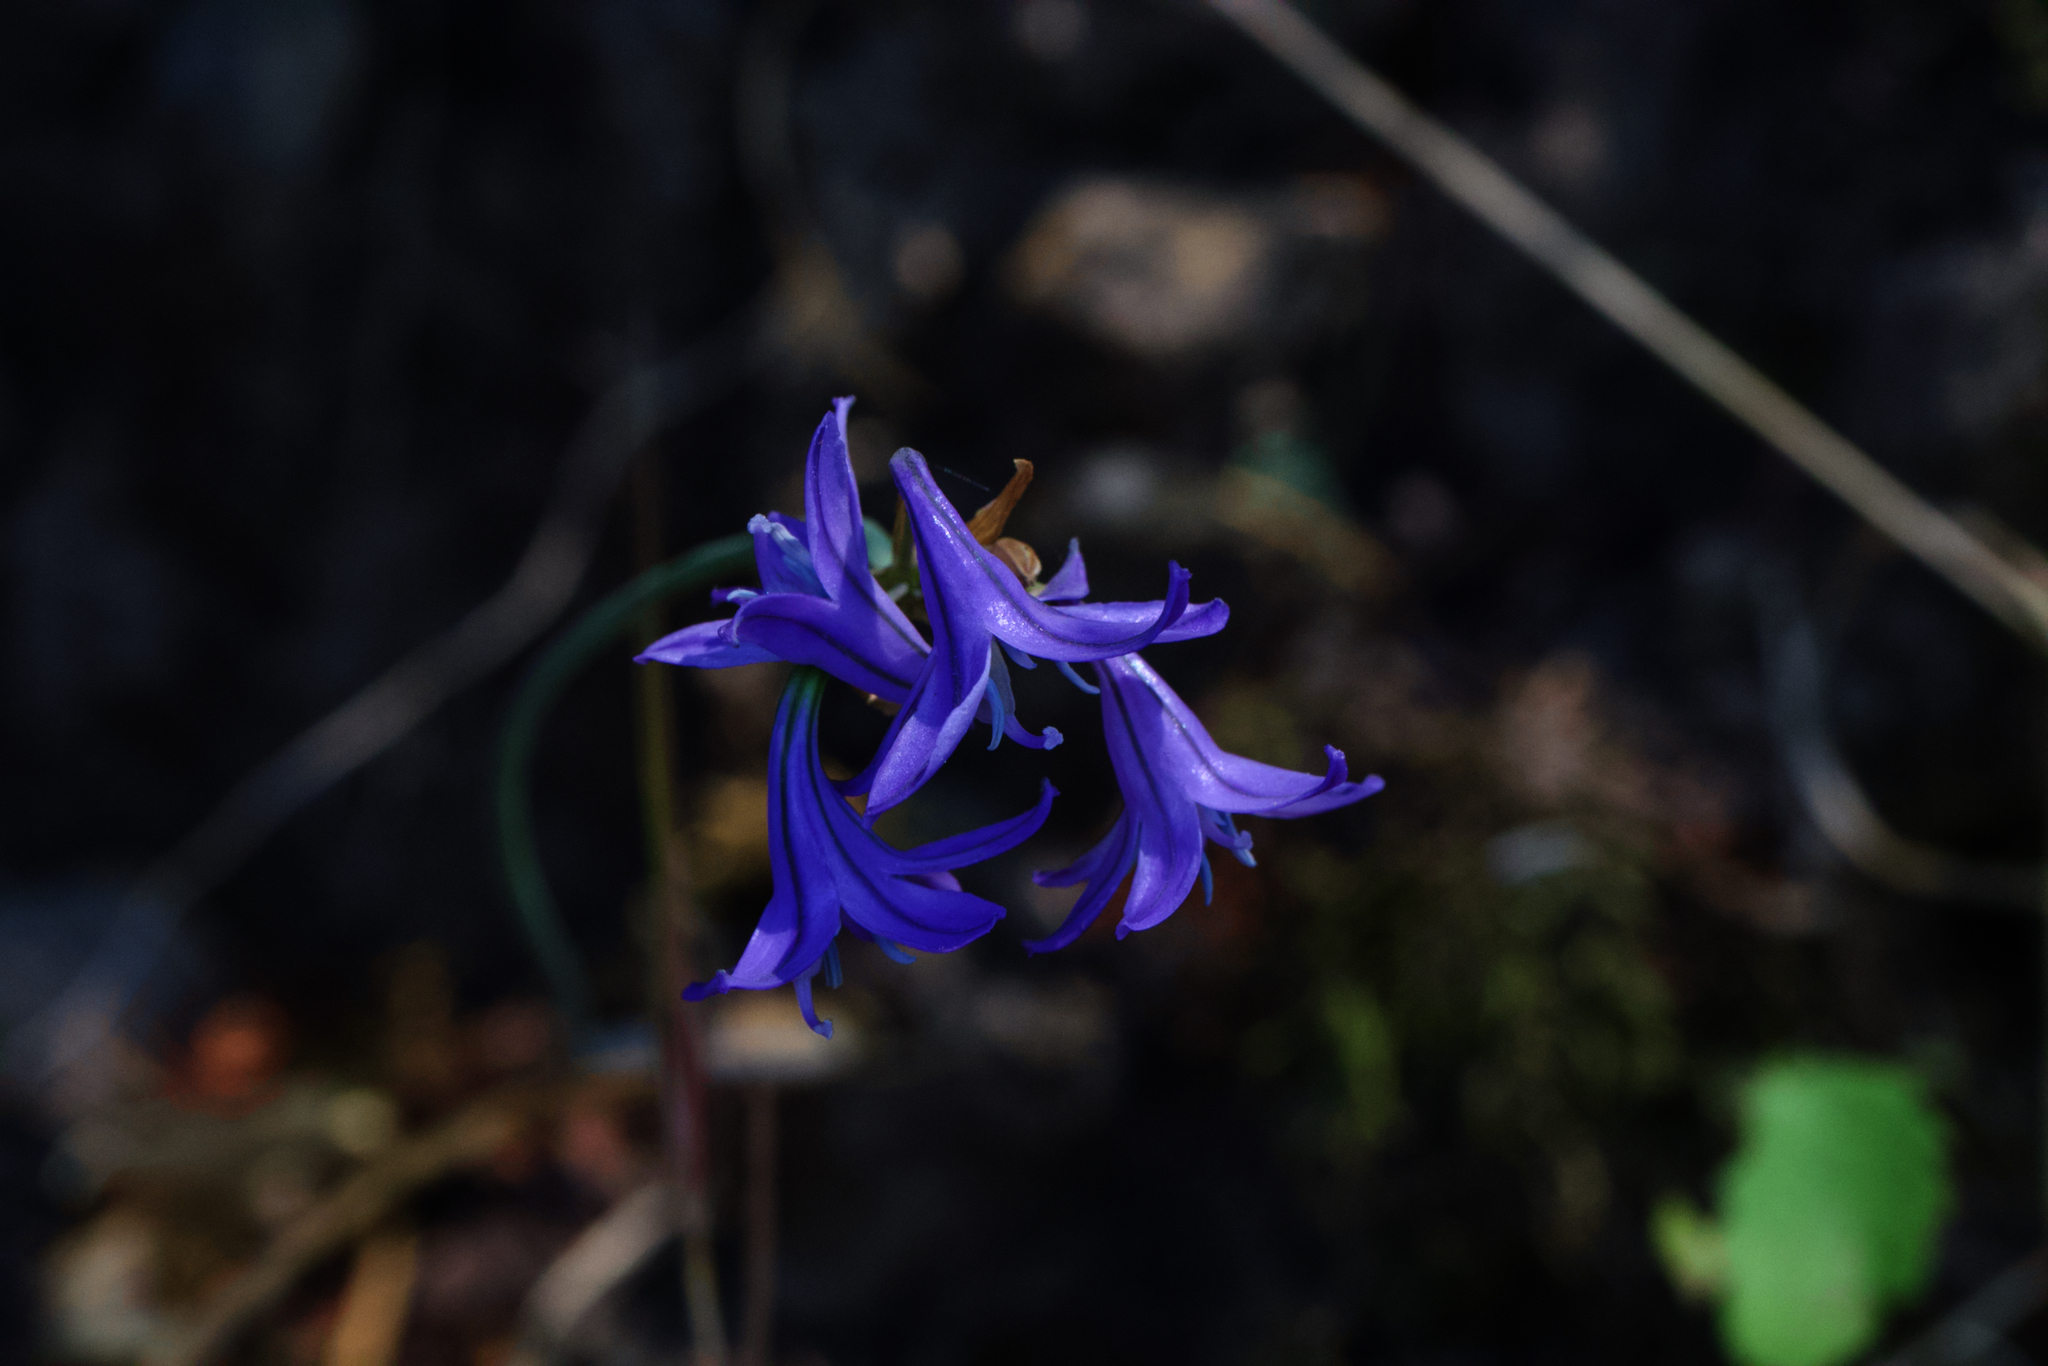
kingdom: Plantae
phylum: Tracheophyta
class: Liliopsida
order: Asparagales
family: Asparagaceae
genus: Triteleia
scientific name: Triteleia laxa
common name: Triplet-lily
